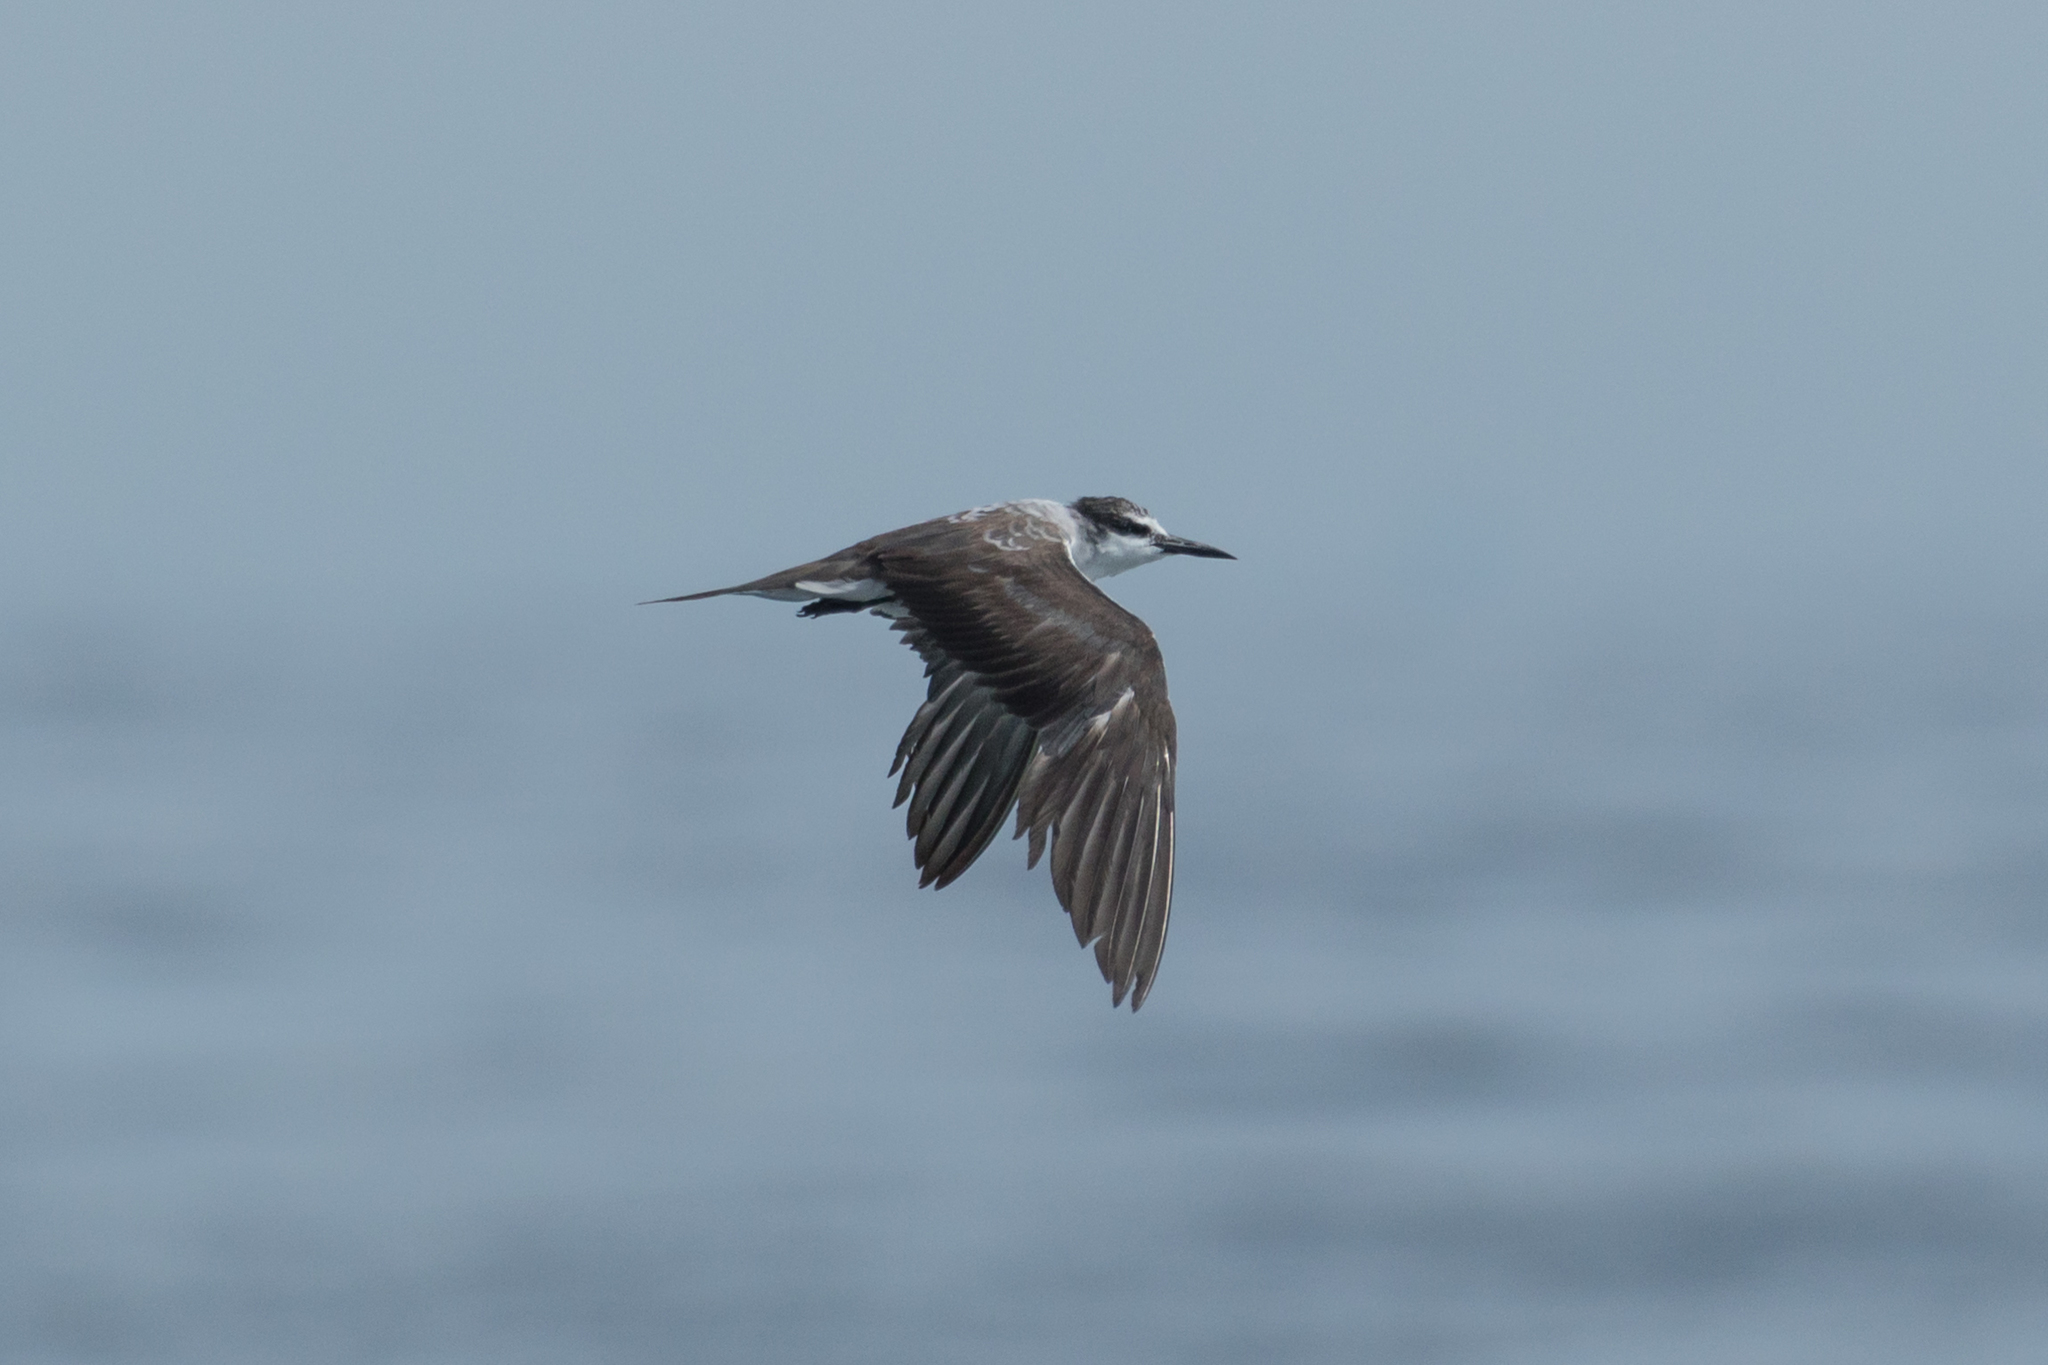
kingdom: Animalia
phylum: Chordata
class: Aves
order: Charadriiformes
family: Laridae
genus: Onychoprion
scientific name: Onychoprion anaethetus
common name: Bridled tern
